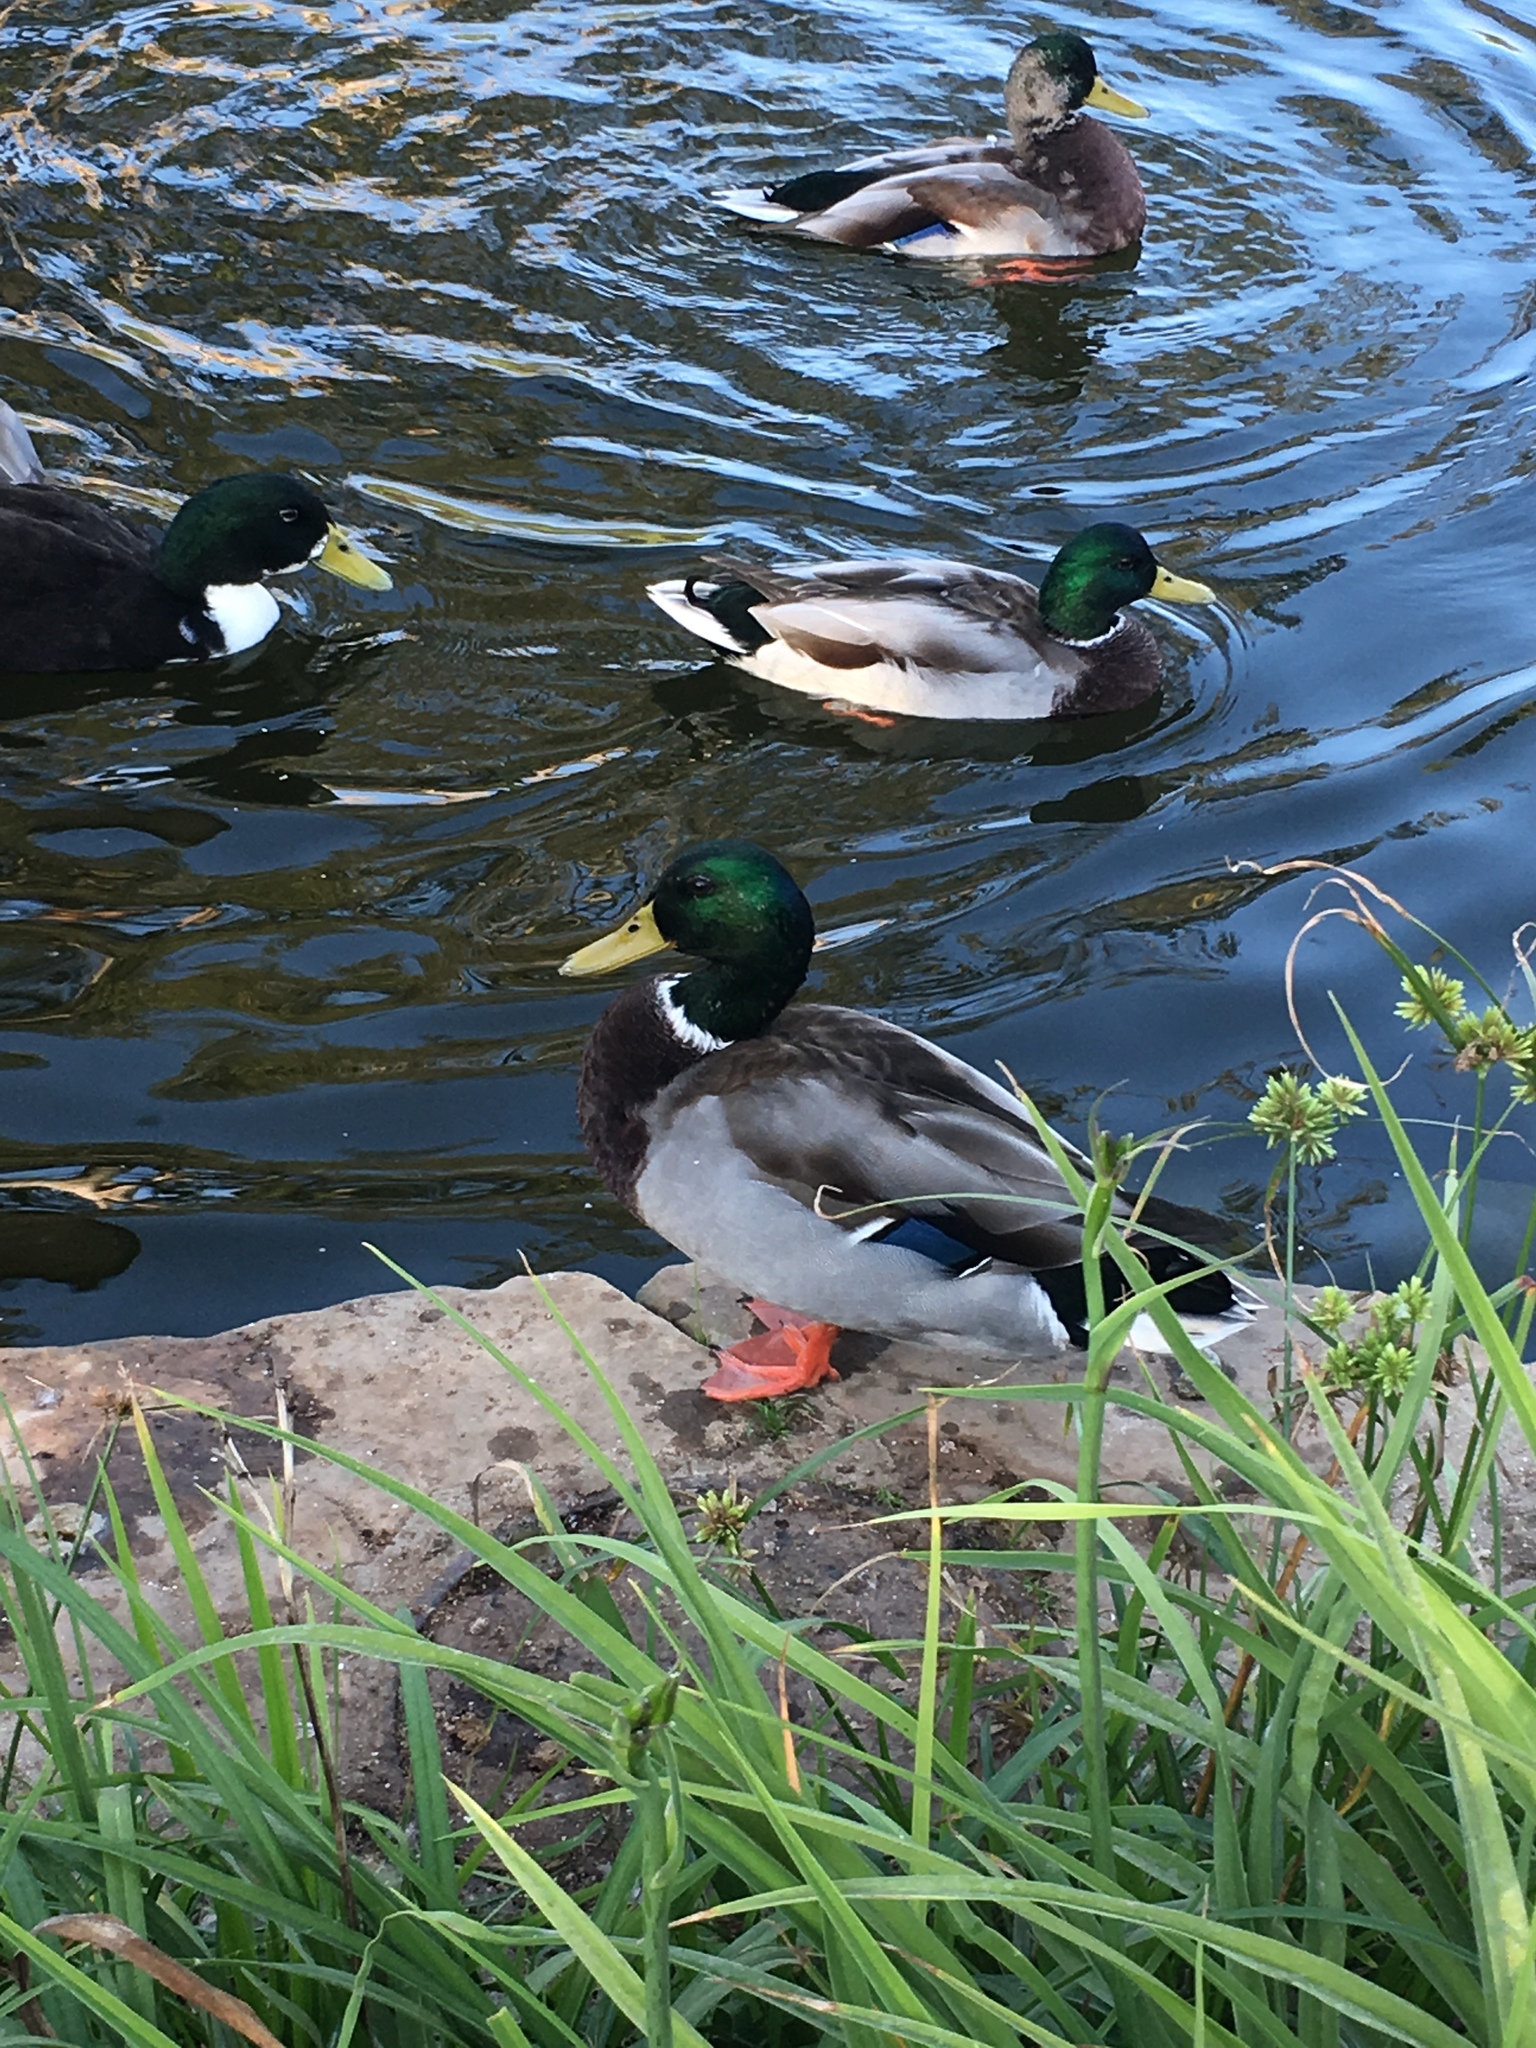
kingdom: Animalia
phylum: Chordata
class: Aves
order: Anseriformes
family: Anatidae
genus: Anas
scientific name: Anas platyrhynchos
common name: Mallard
